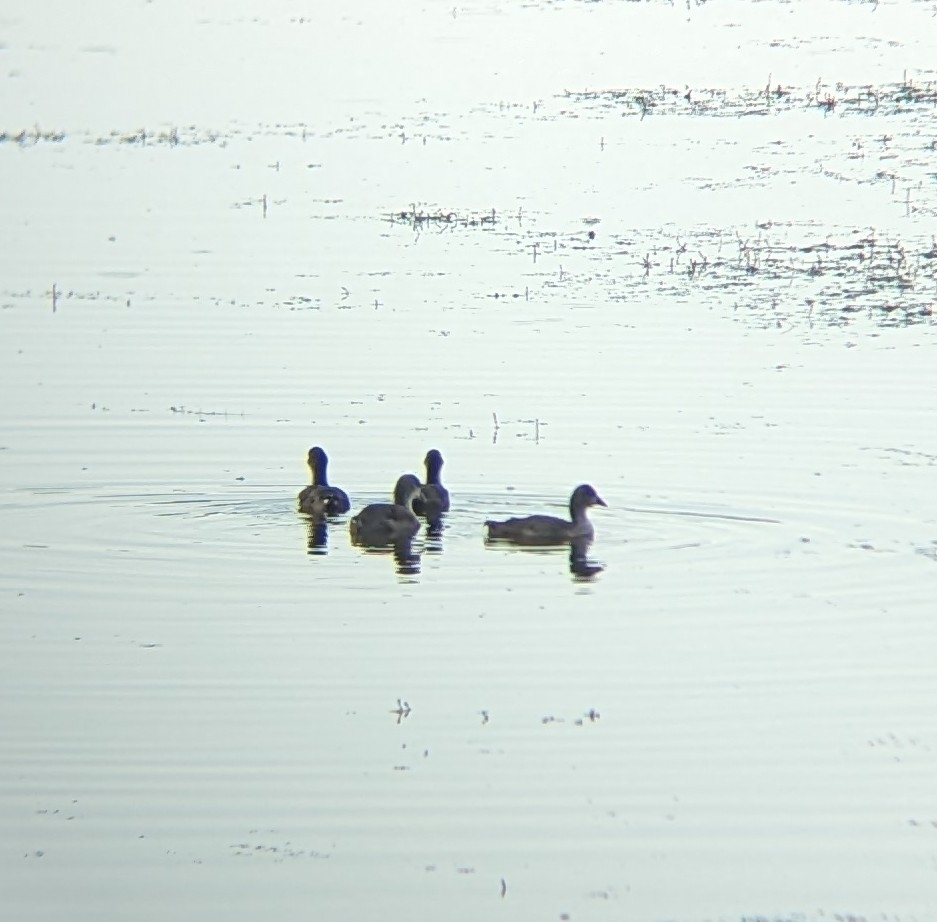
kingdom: Animalia
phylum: Chordata
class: Aves
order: Gruiformes
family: Rallidae
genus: Fulica
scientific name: Fulica americana
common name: American coot
